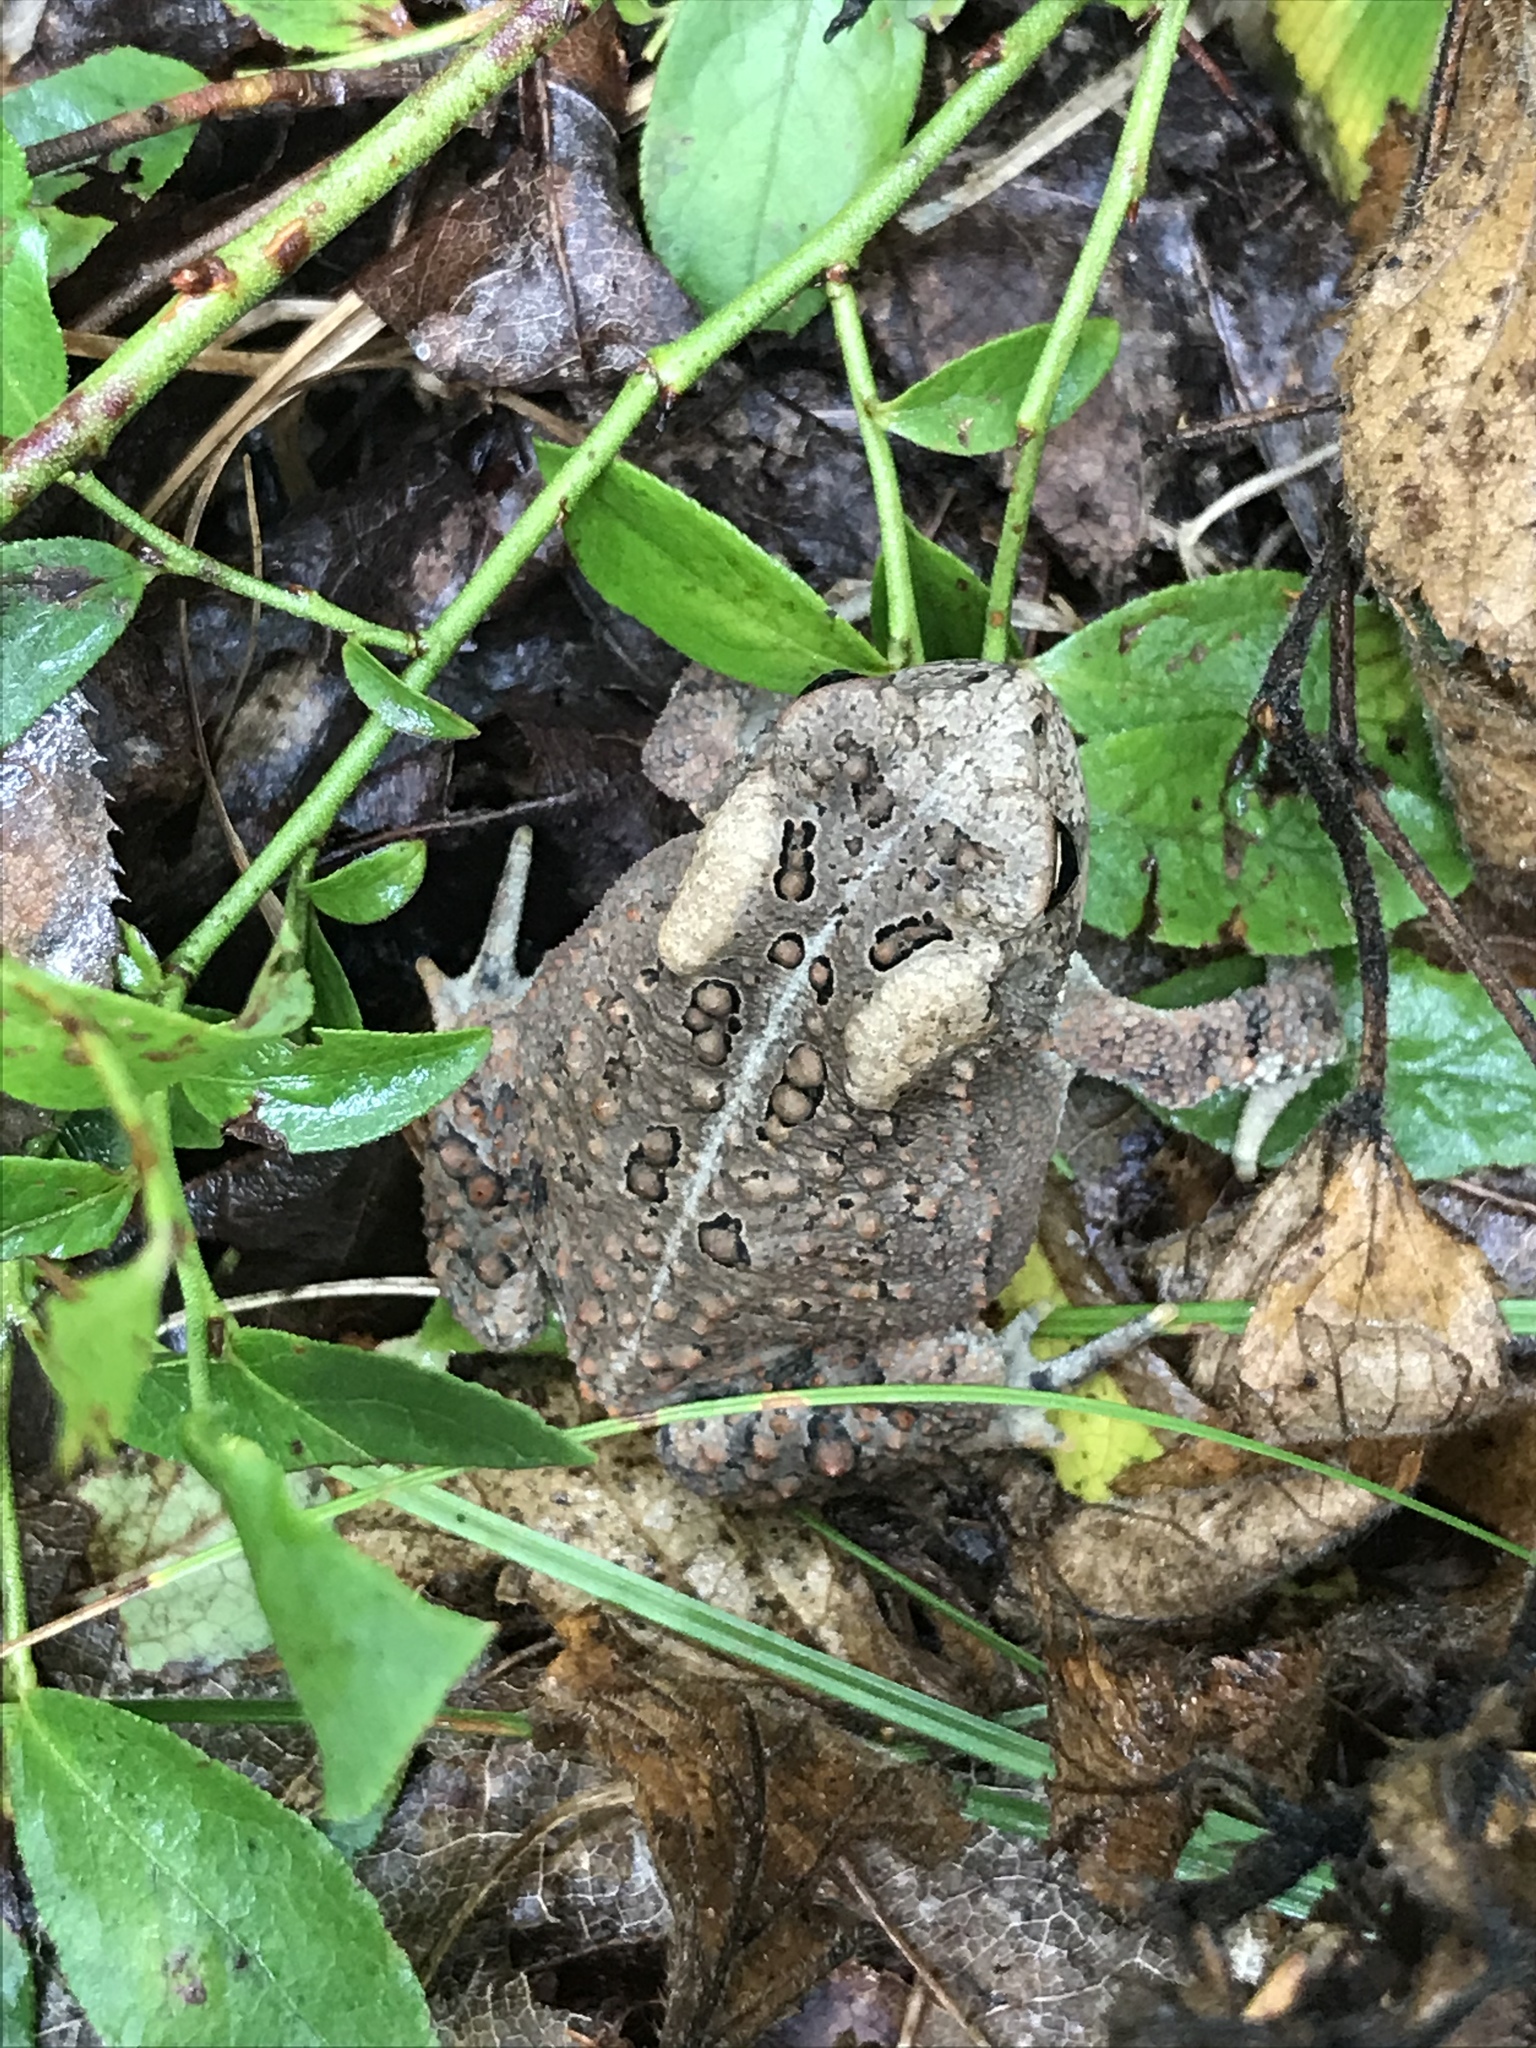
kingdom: Animalia
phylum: Chordata
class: Amphibia
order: Anura
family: Bufonidae
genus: Anaxyrus
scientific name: Anaxyrus americanus
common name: American toad
